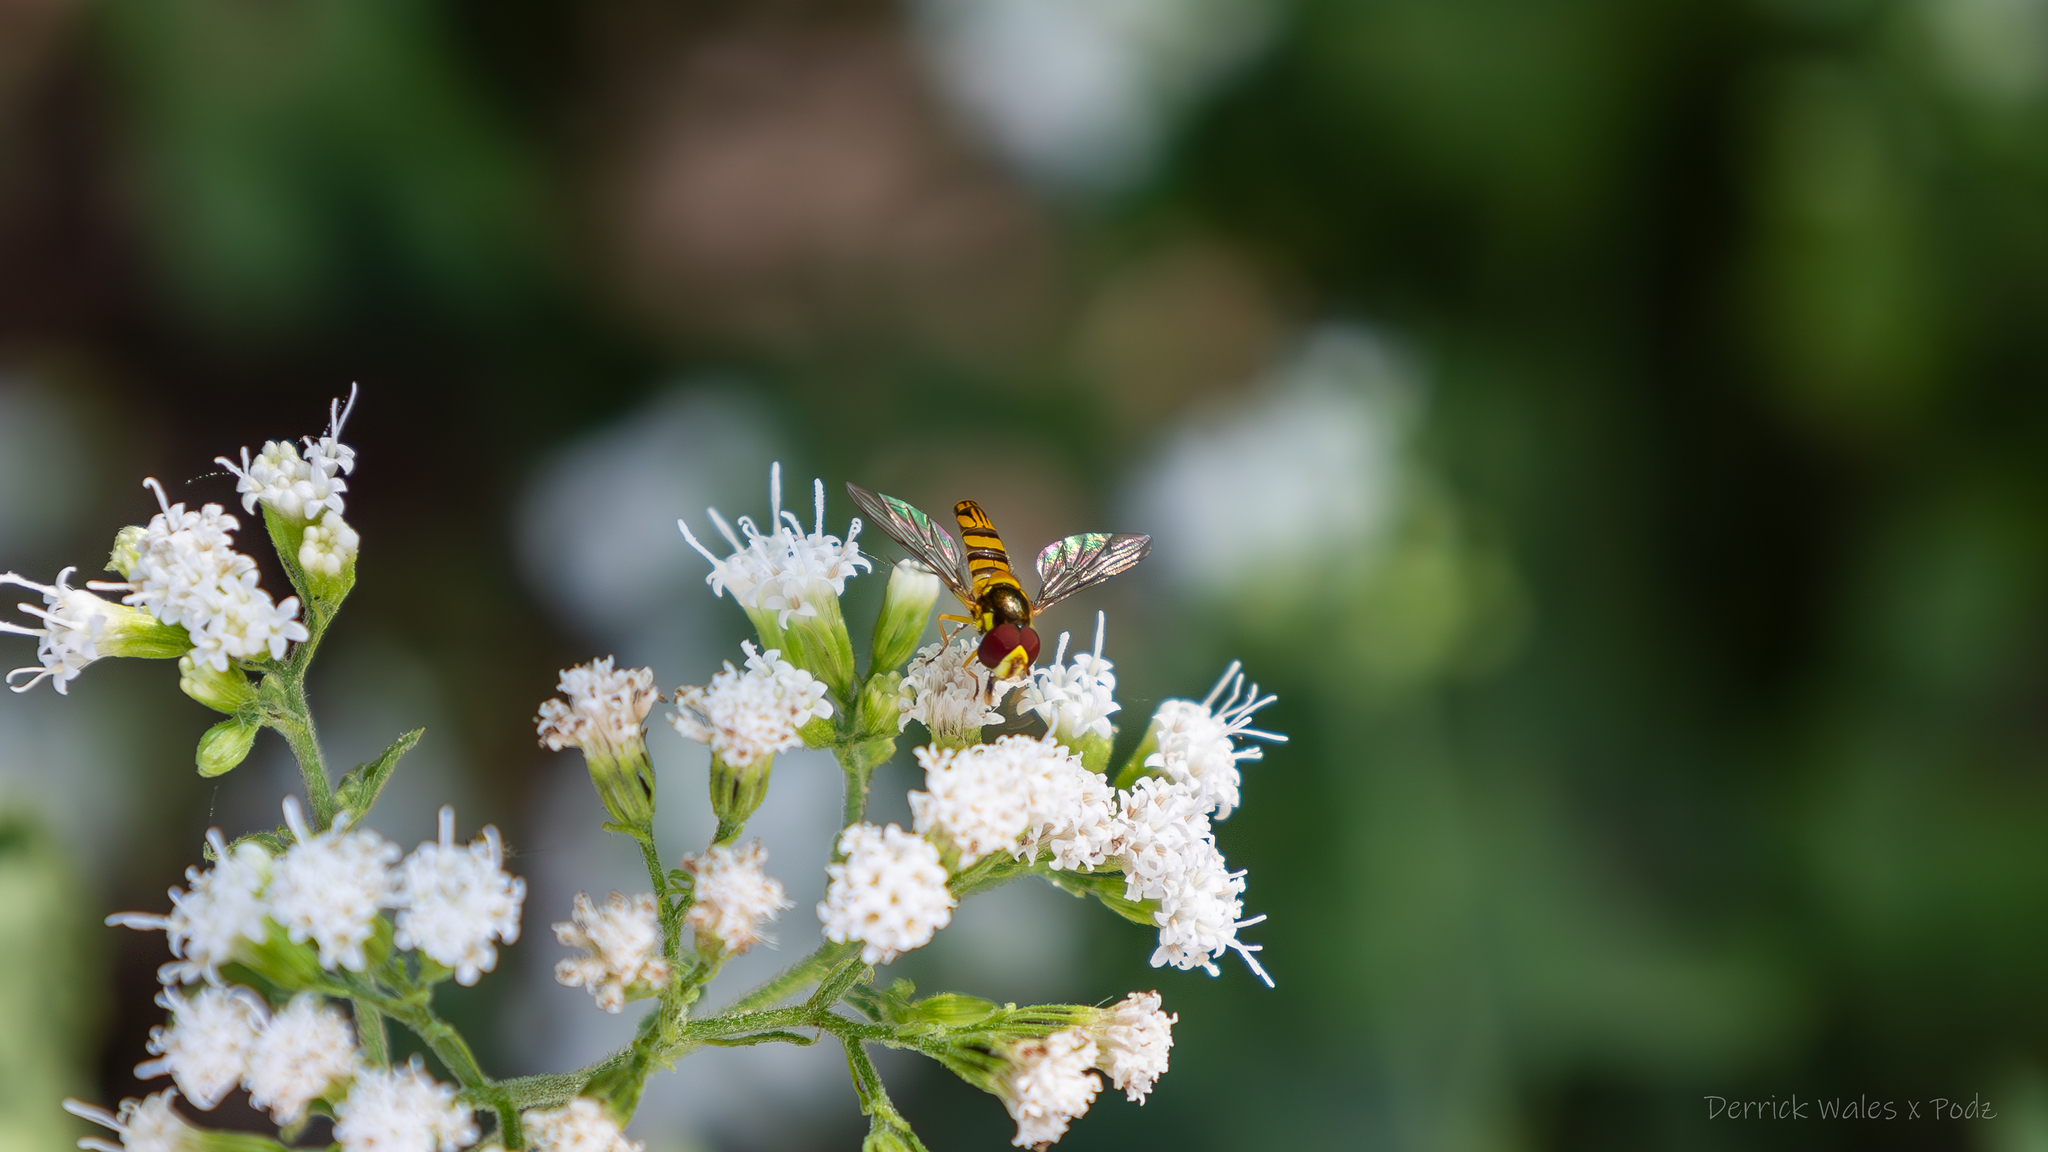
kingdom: Animalia
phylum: Arthropoda
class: Insecta
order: Diptera
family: Syrphidae
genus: Allograpta
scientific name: Allograpta obliqua
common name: Common oblique syrphid
